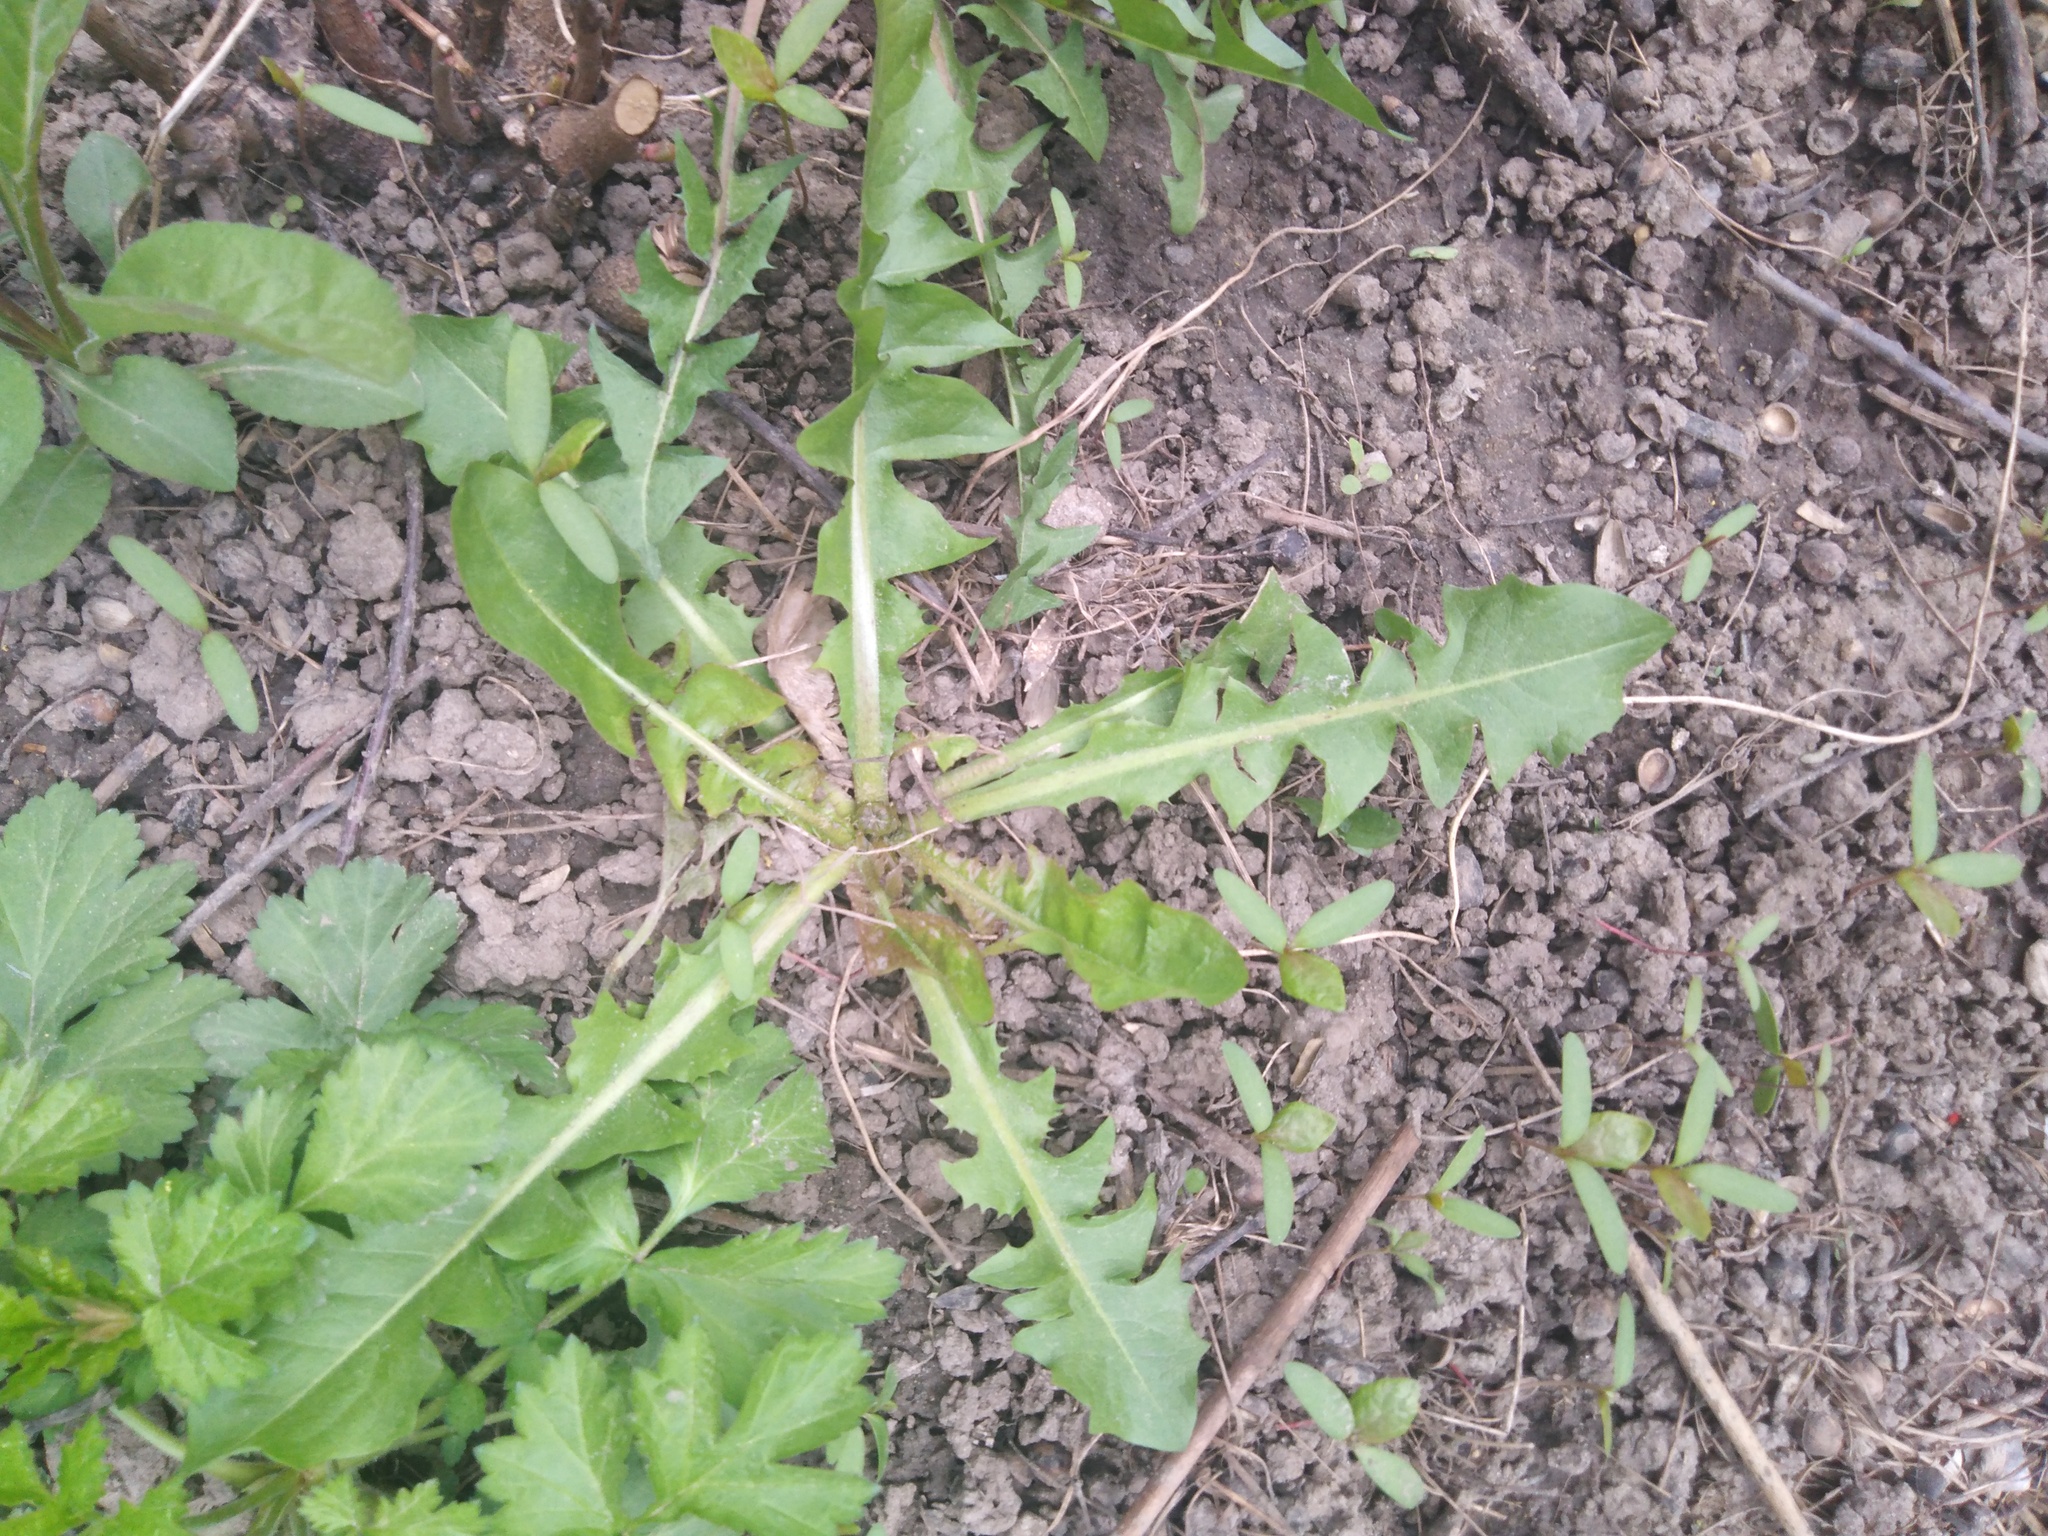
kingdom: Plantae
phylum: Tracheophyta
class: Magnoliopsida
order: Asterales
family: Asteraceae
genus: Taraxacum
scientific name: Taraxacum officinale
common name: Common dandelion
